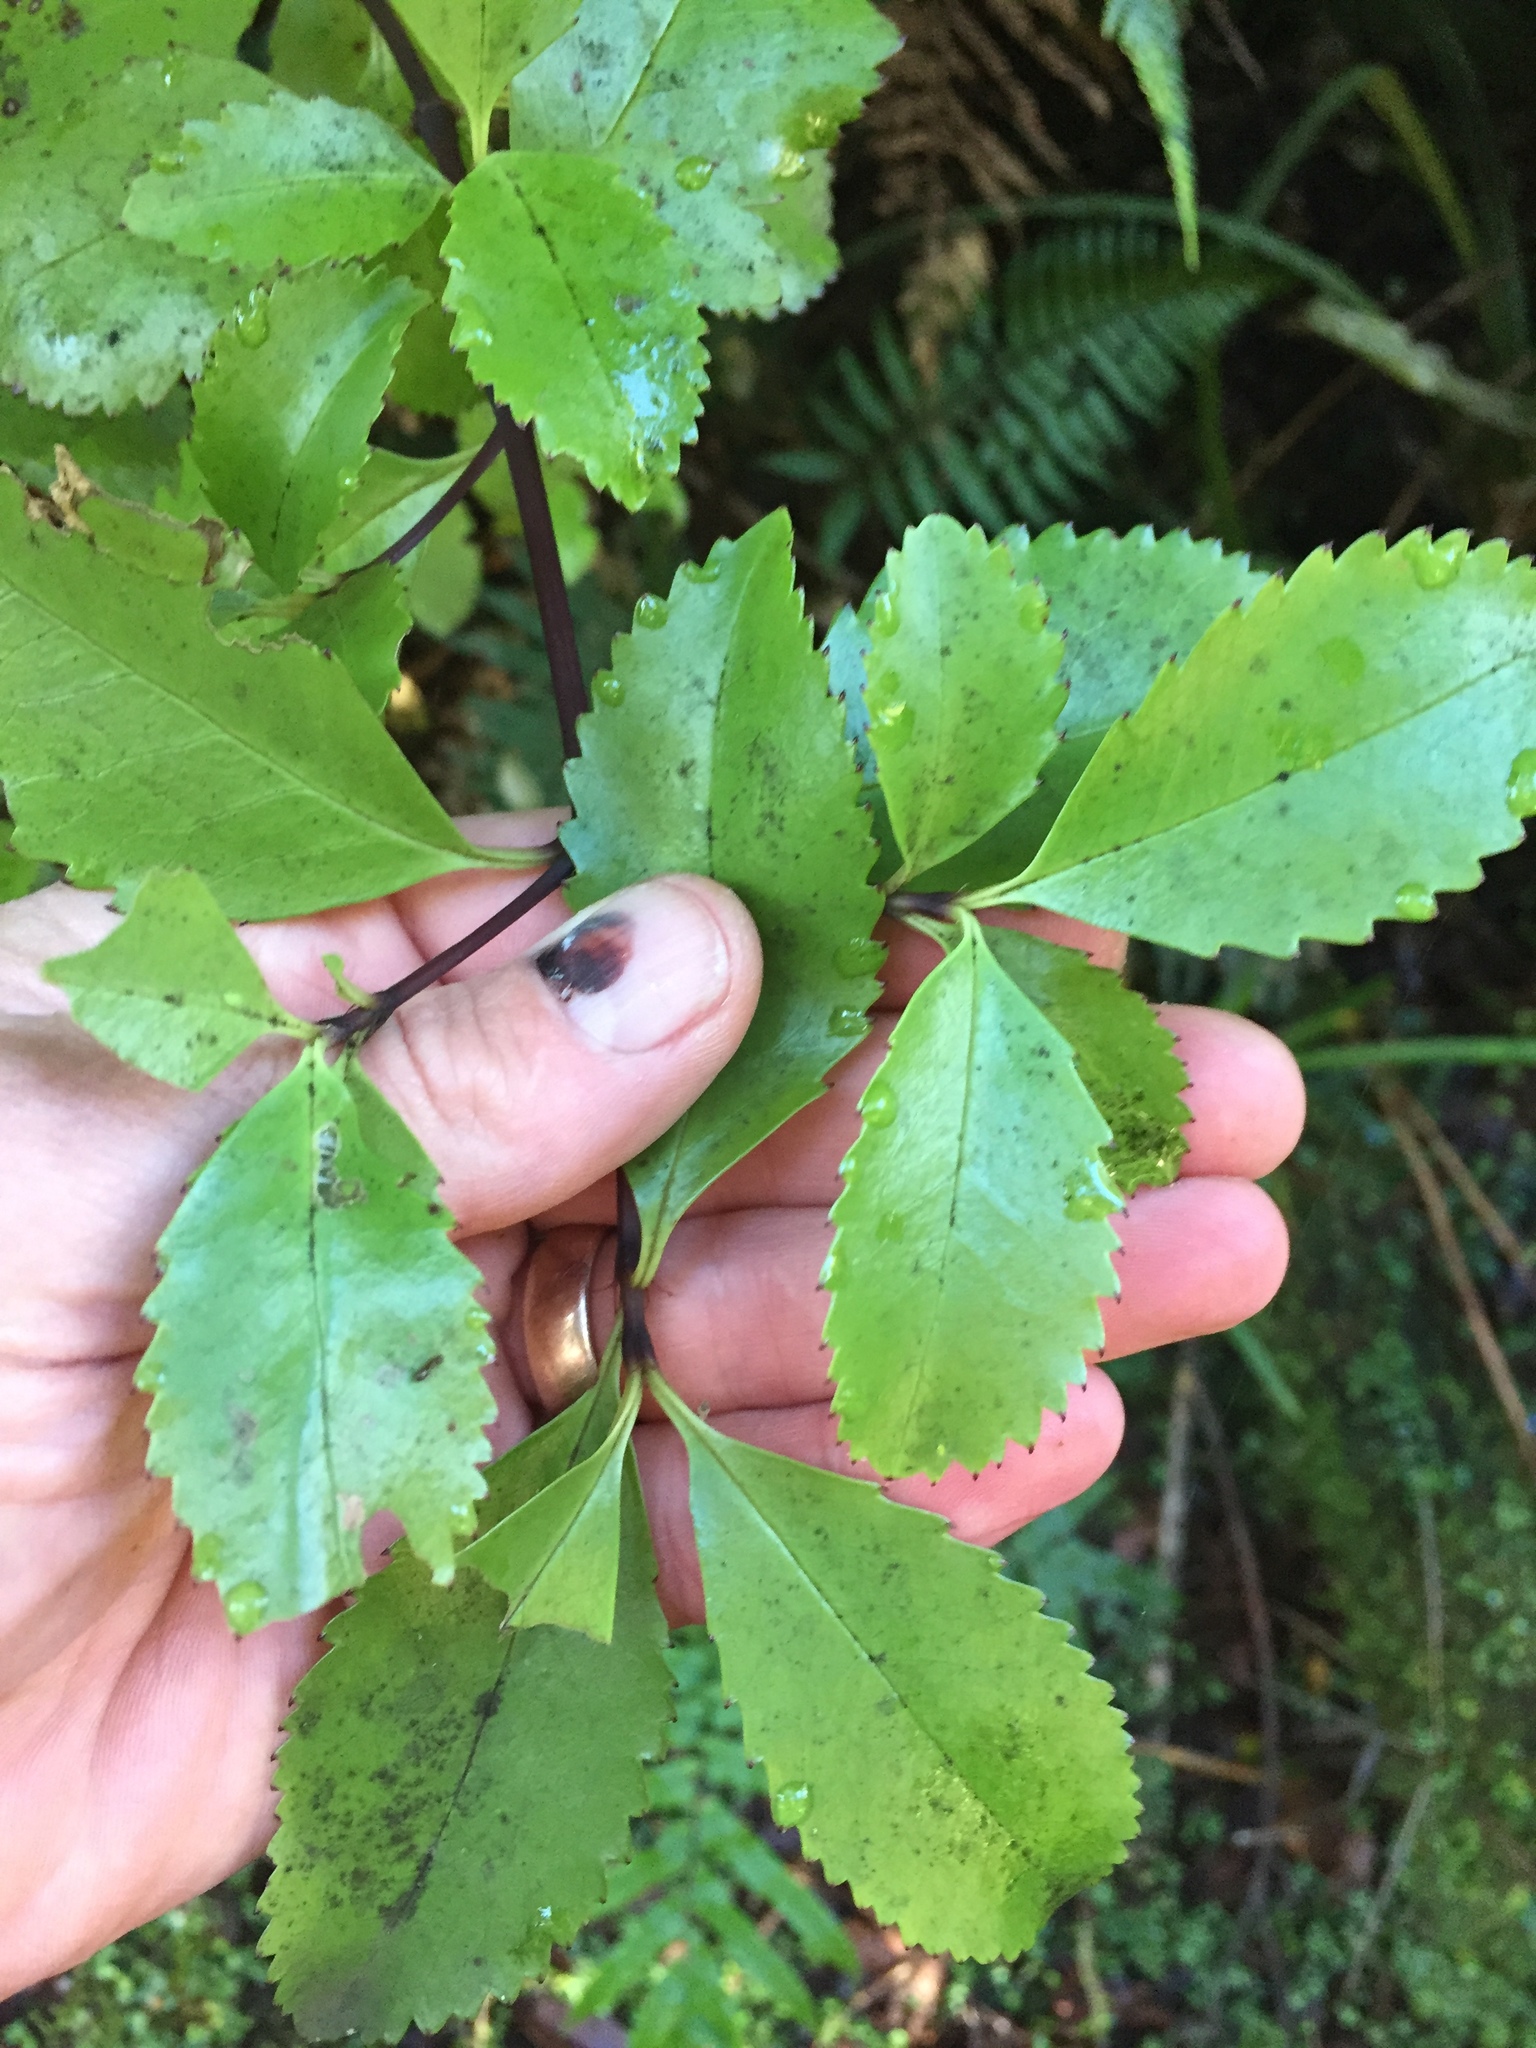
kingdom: Plantae
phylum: Tracheophyta
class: Magnoliopsida
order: Chloranthales
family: Chloranthaceae
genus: Ascarina
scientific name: Ascarina lucida
